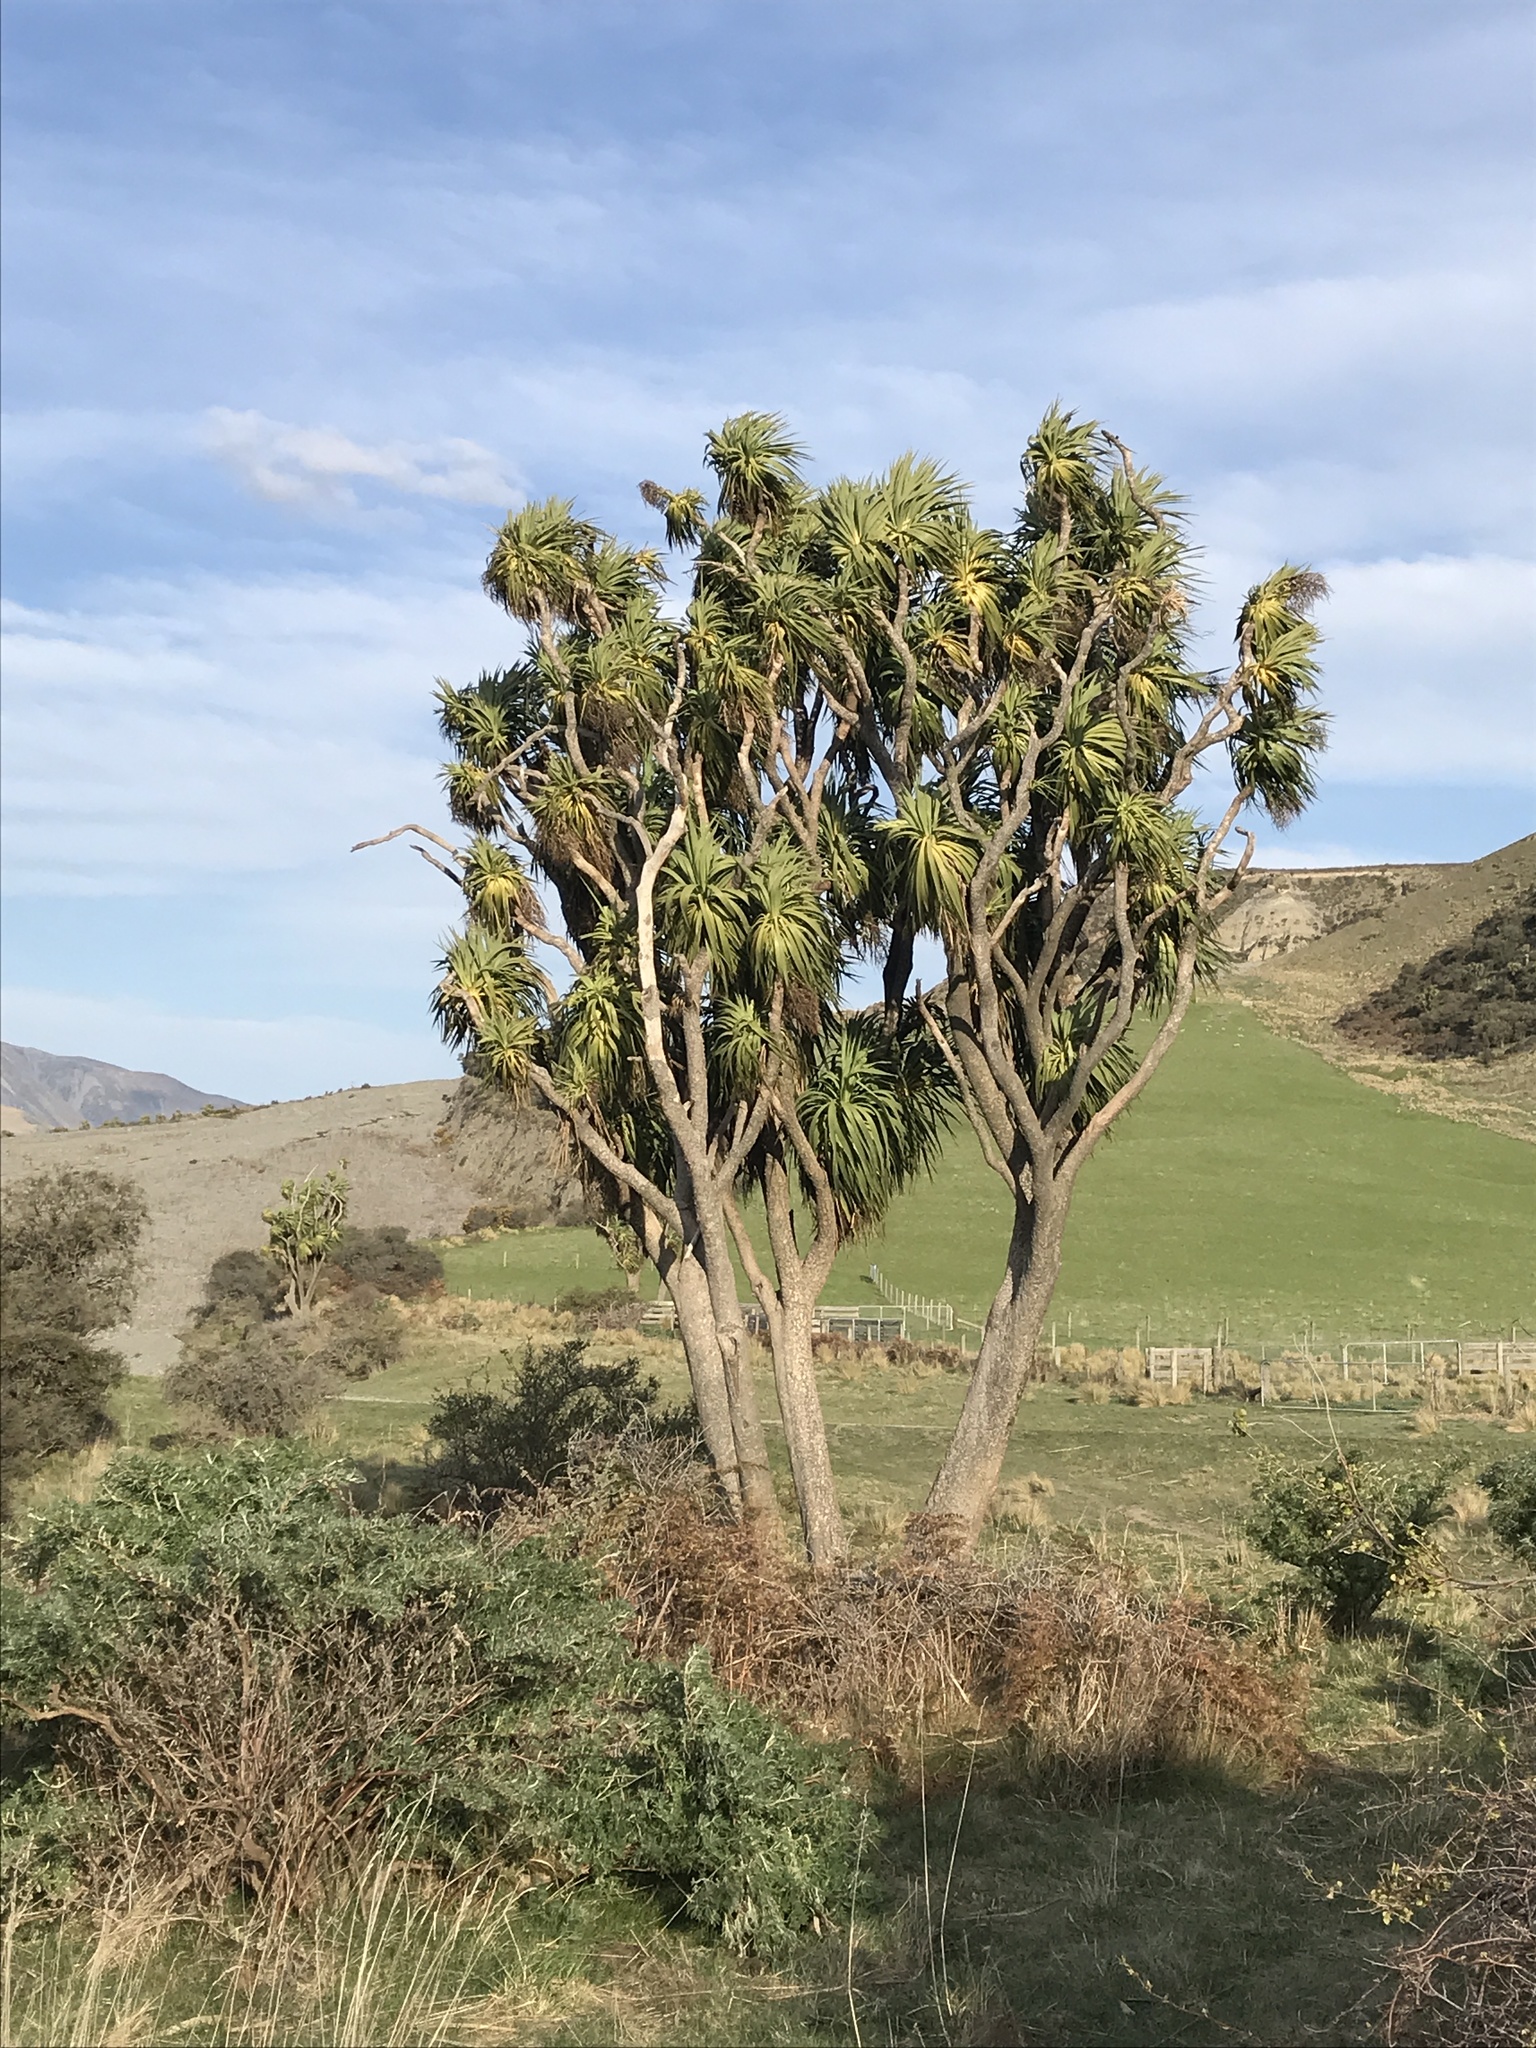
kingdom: Plantae
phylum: Tracheophyta
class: Liliopsida
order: Asparagales
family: Asparagaceae
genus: Cordyline
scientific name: Cordyline australis
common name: Cabbage-palm
